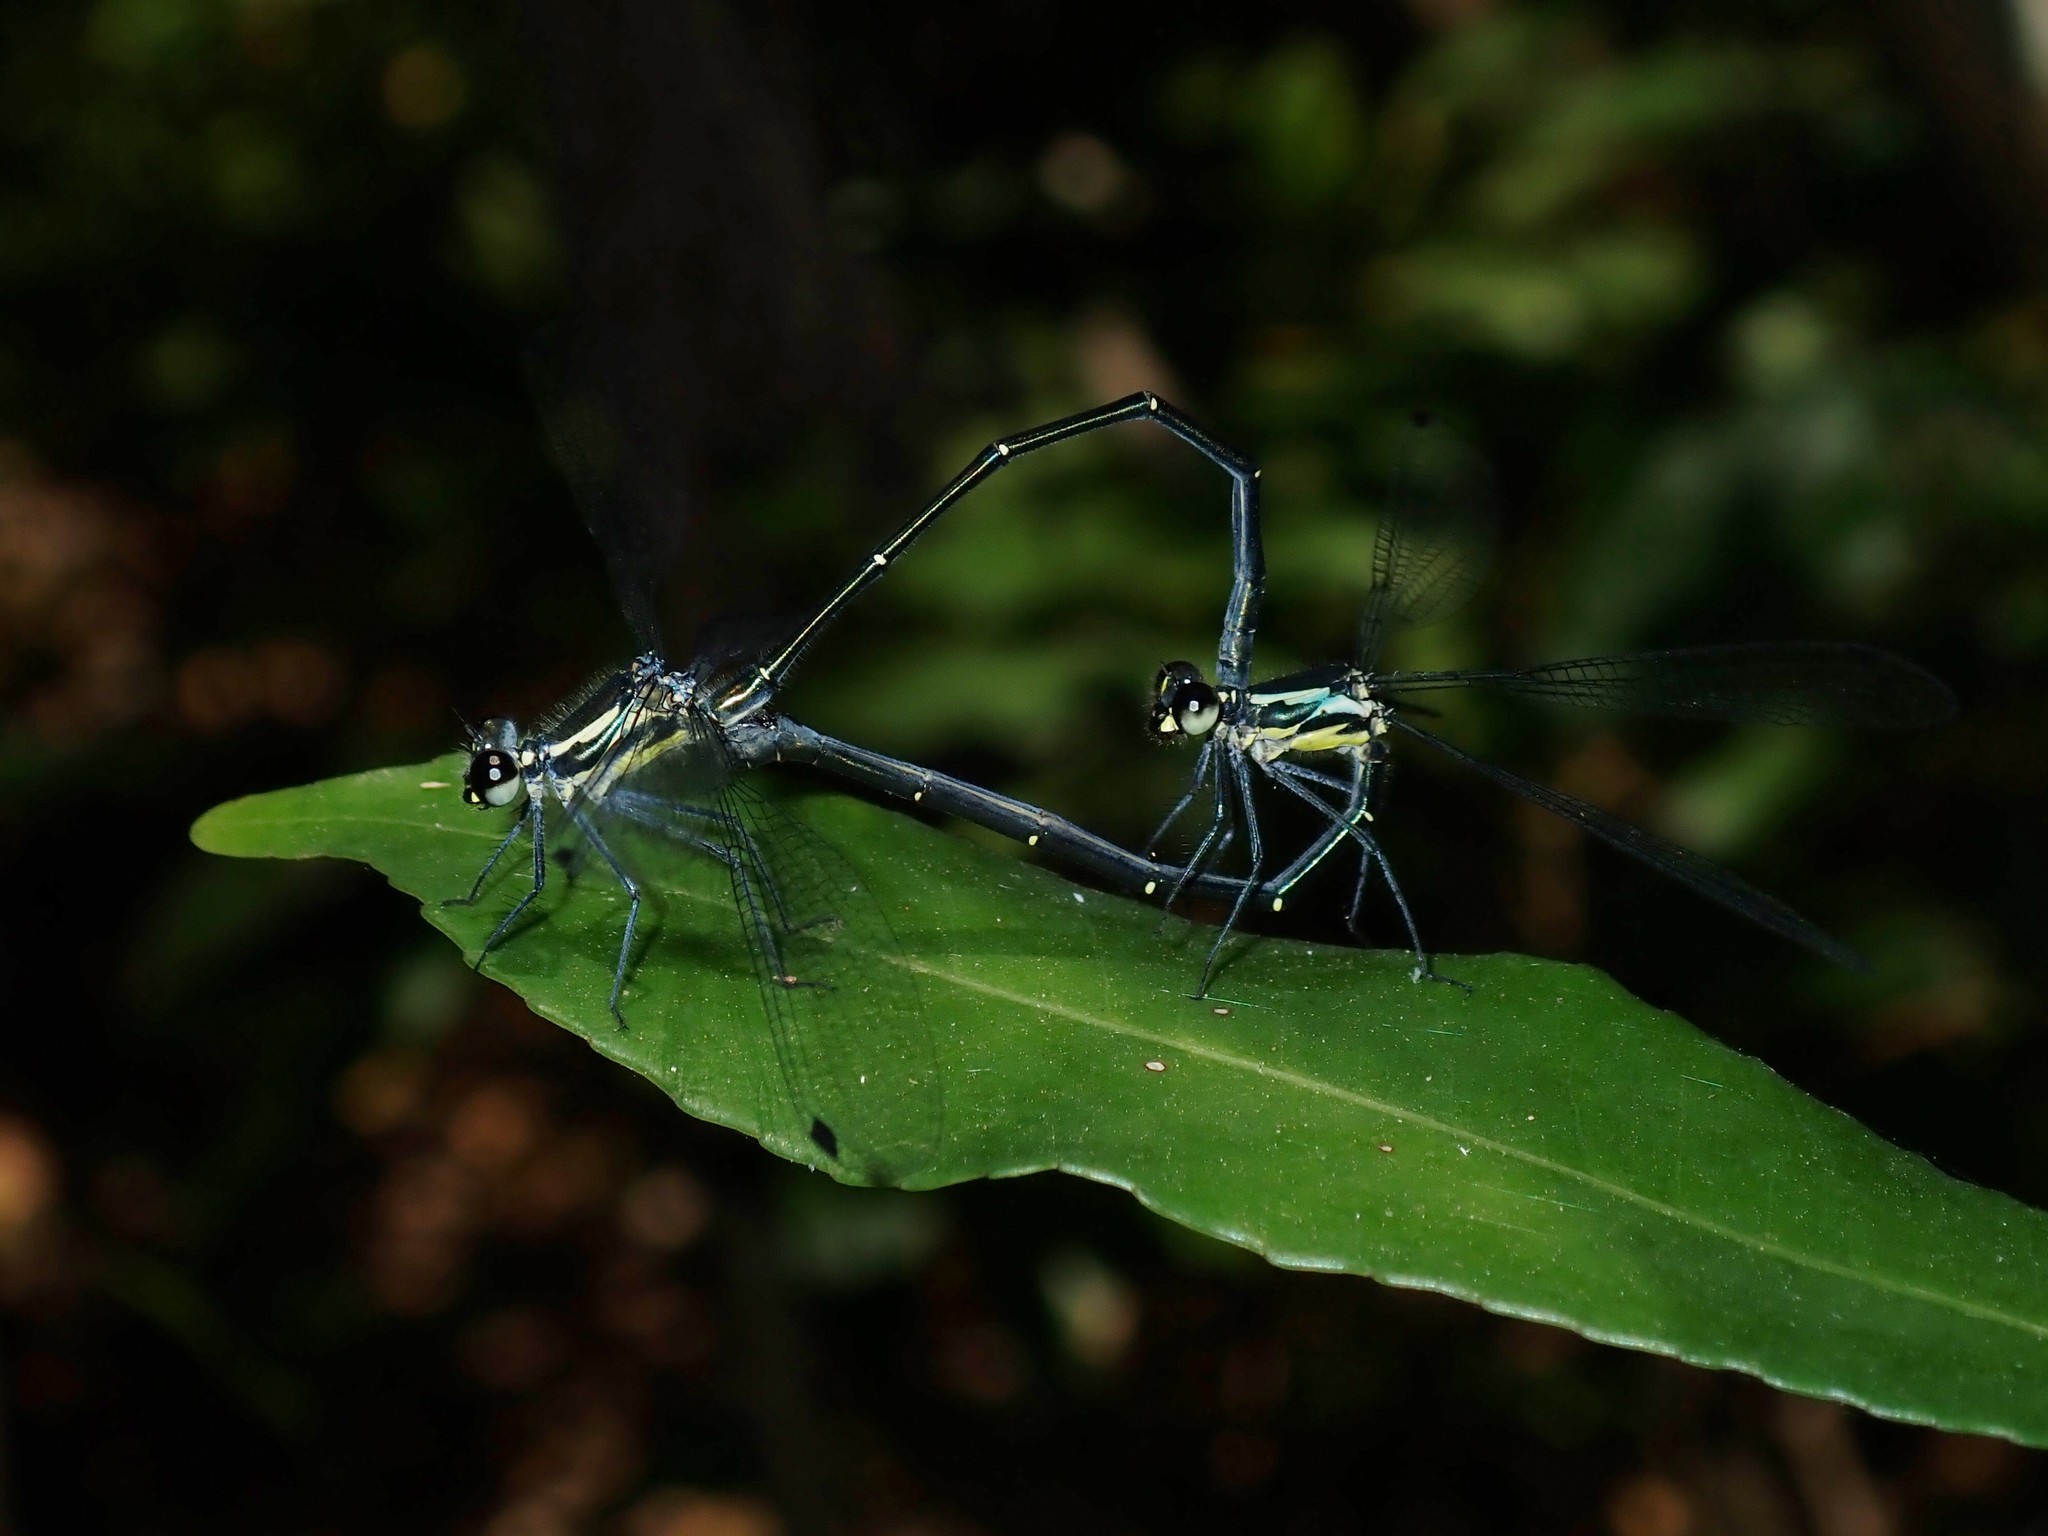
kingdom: Animalia
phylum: Arthropoda
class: Insecta
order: Odonata
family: Argiolestidae
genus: Austroargiolestes
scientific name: Austroargiolestes icteromelas
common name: Common flatwing
